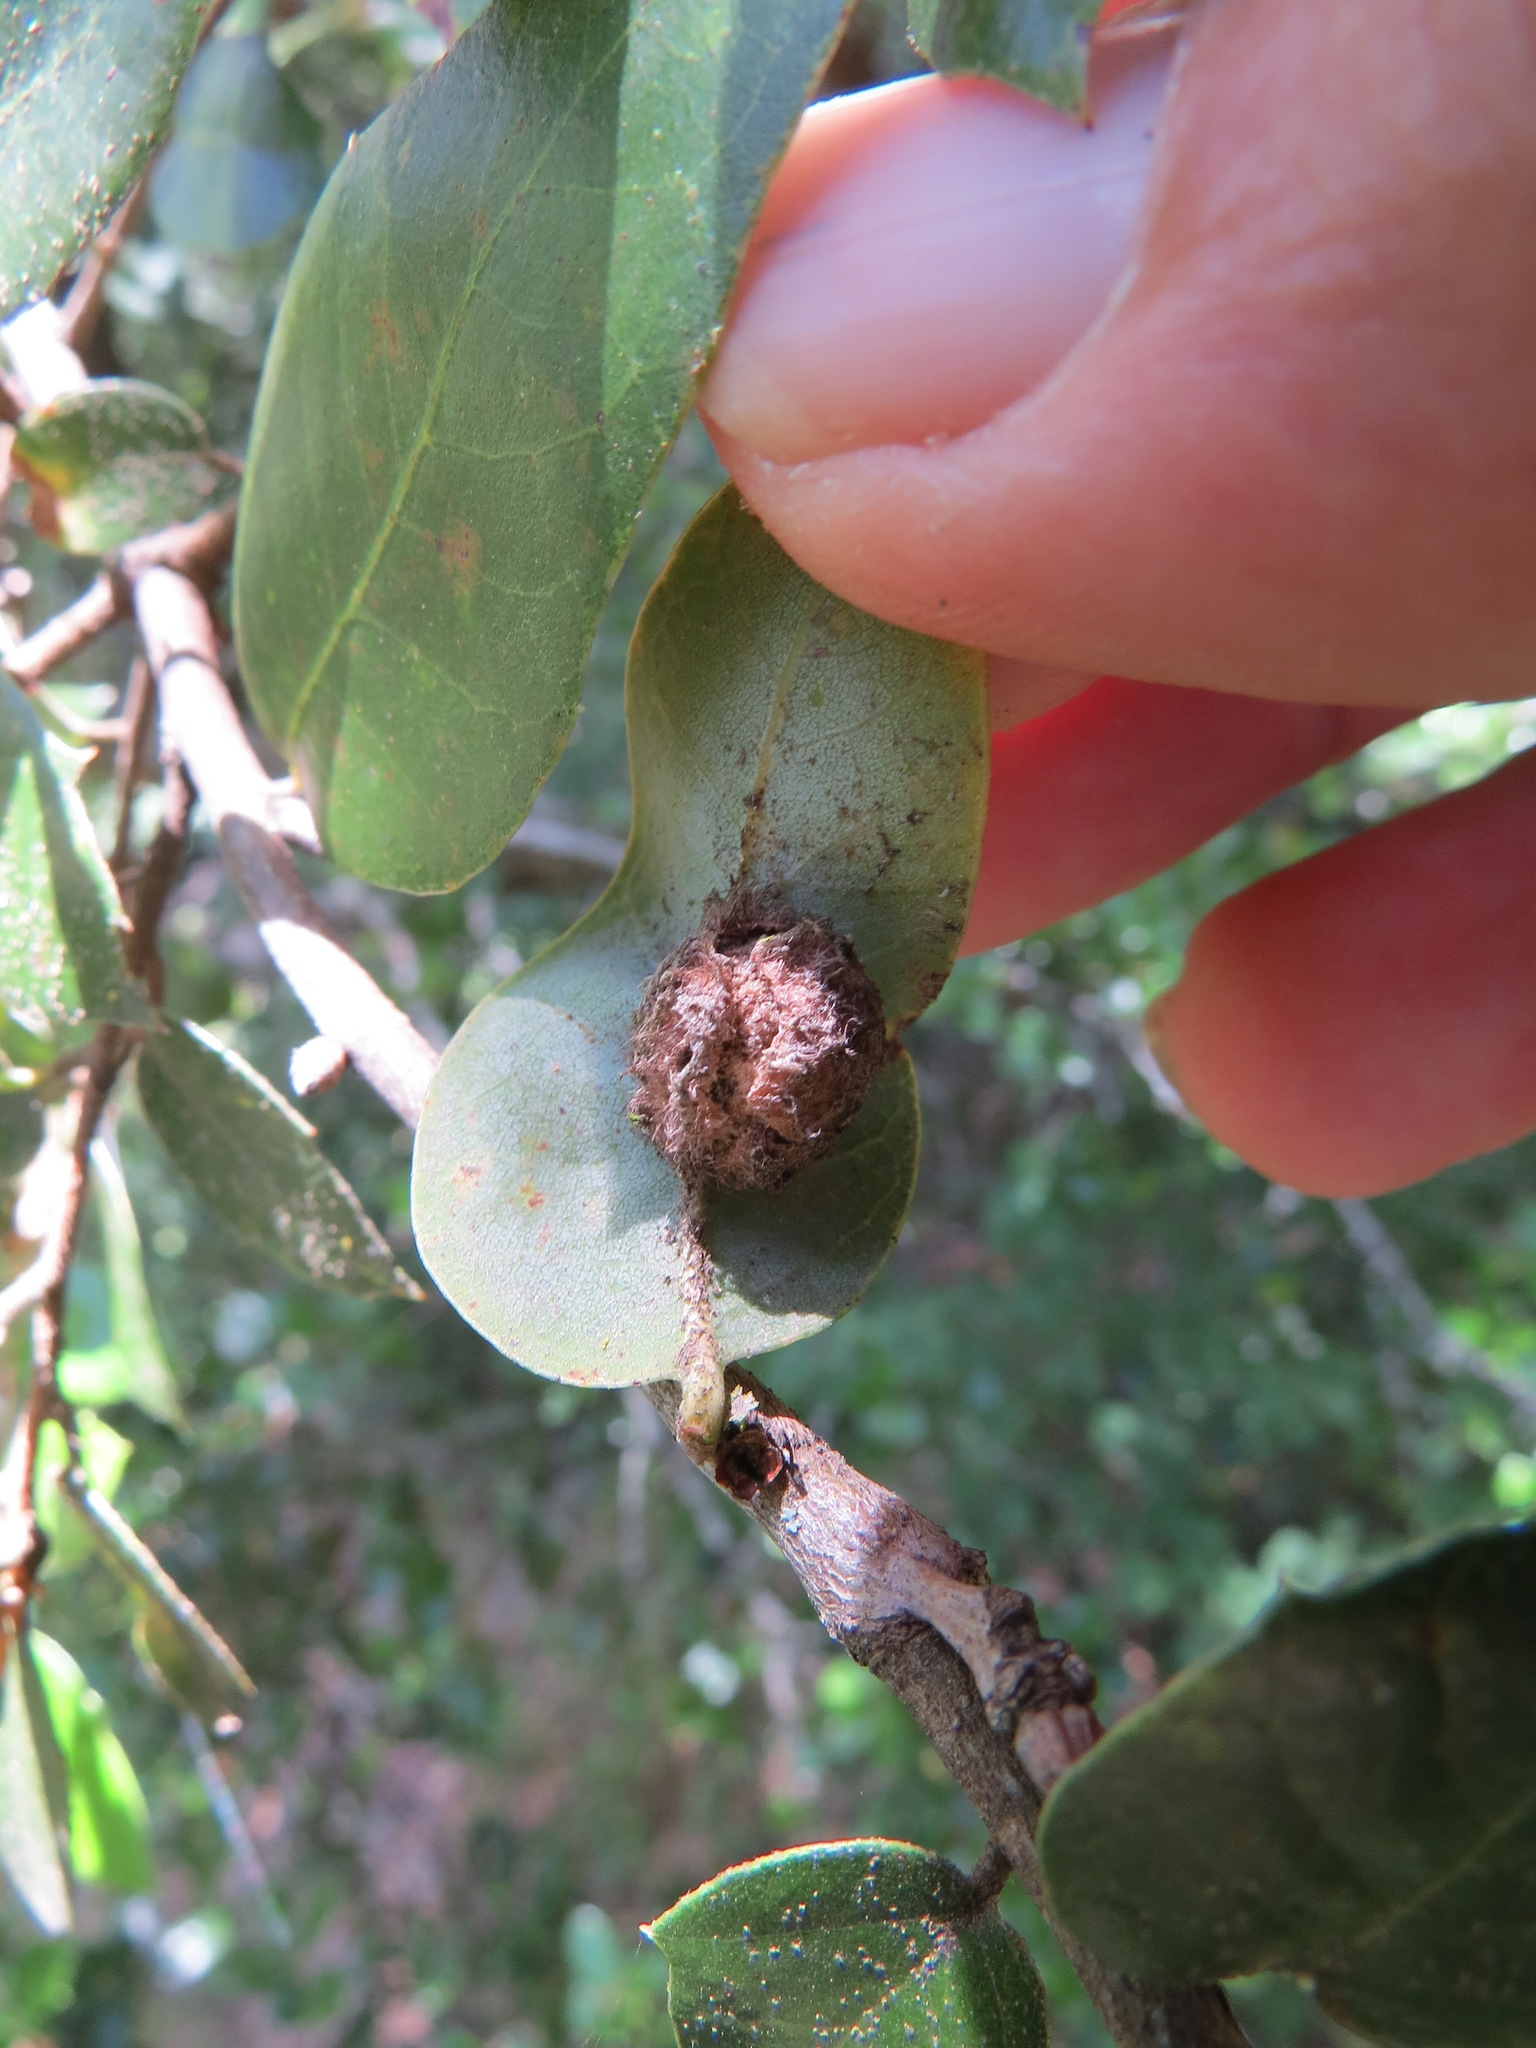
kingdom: Animalia
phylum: Arthropoda
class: Insecta
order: Hymenoptera
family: Cynipidae
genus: Disholandricus
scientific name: Disholandricus
